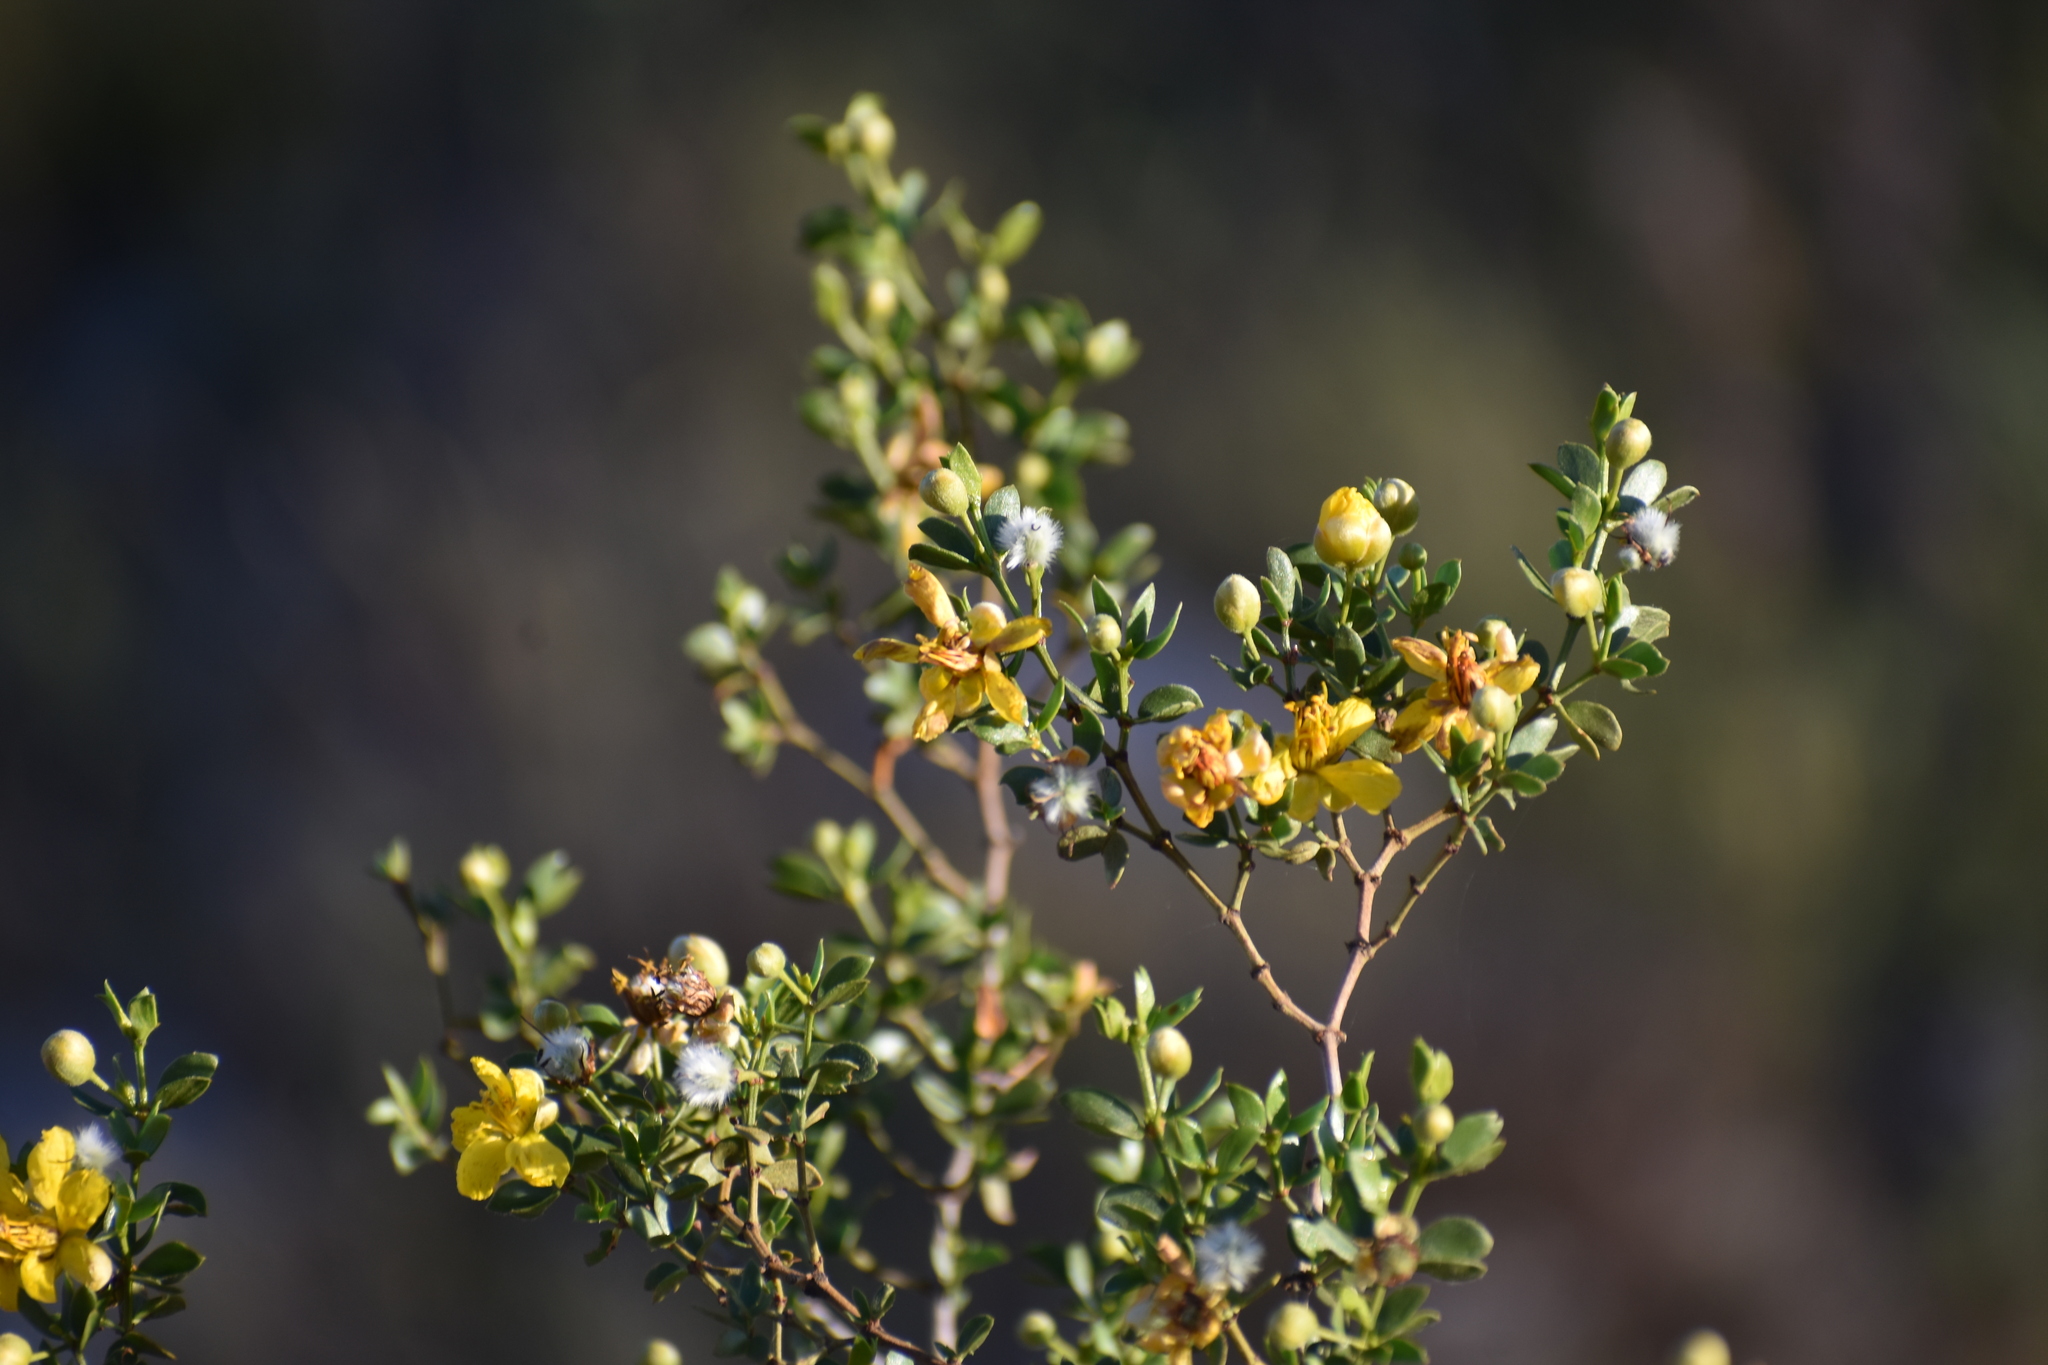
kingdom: Plantae
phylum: Tracheophyta
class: Magnoliopsida
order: Zygophyllales
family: Zygophyllaceae
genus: Larrea
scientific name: Larrea tridentata
